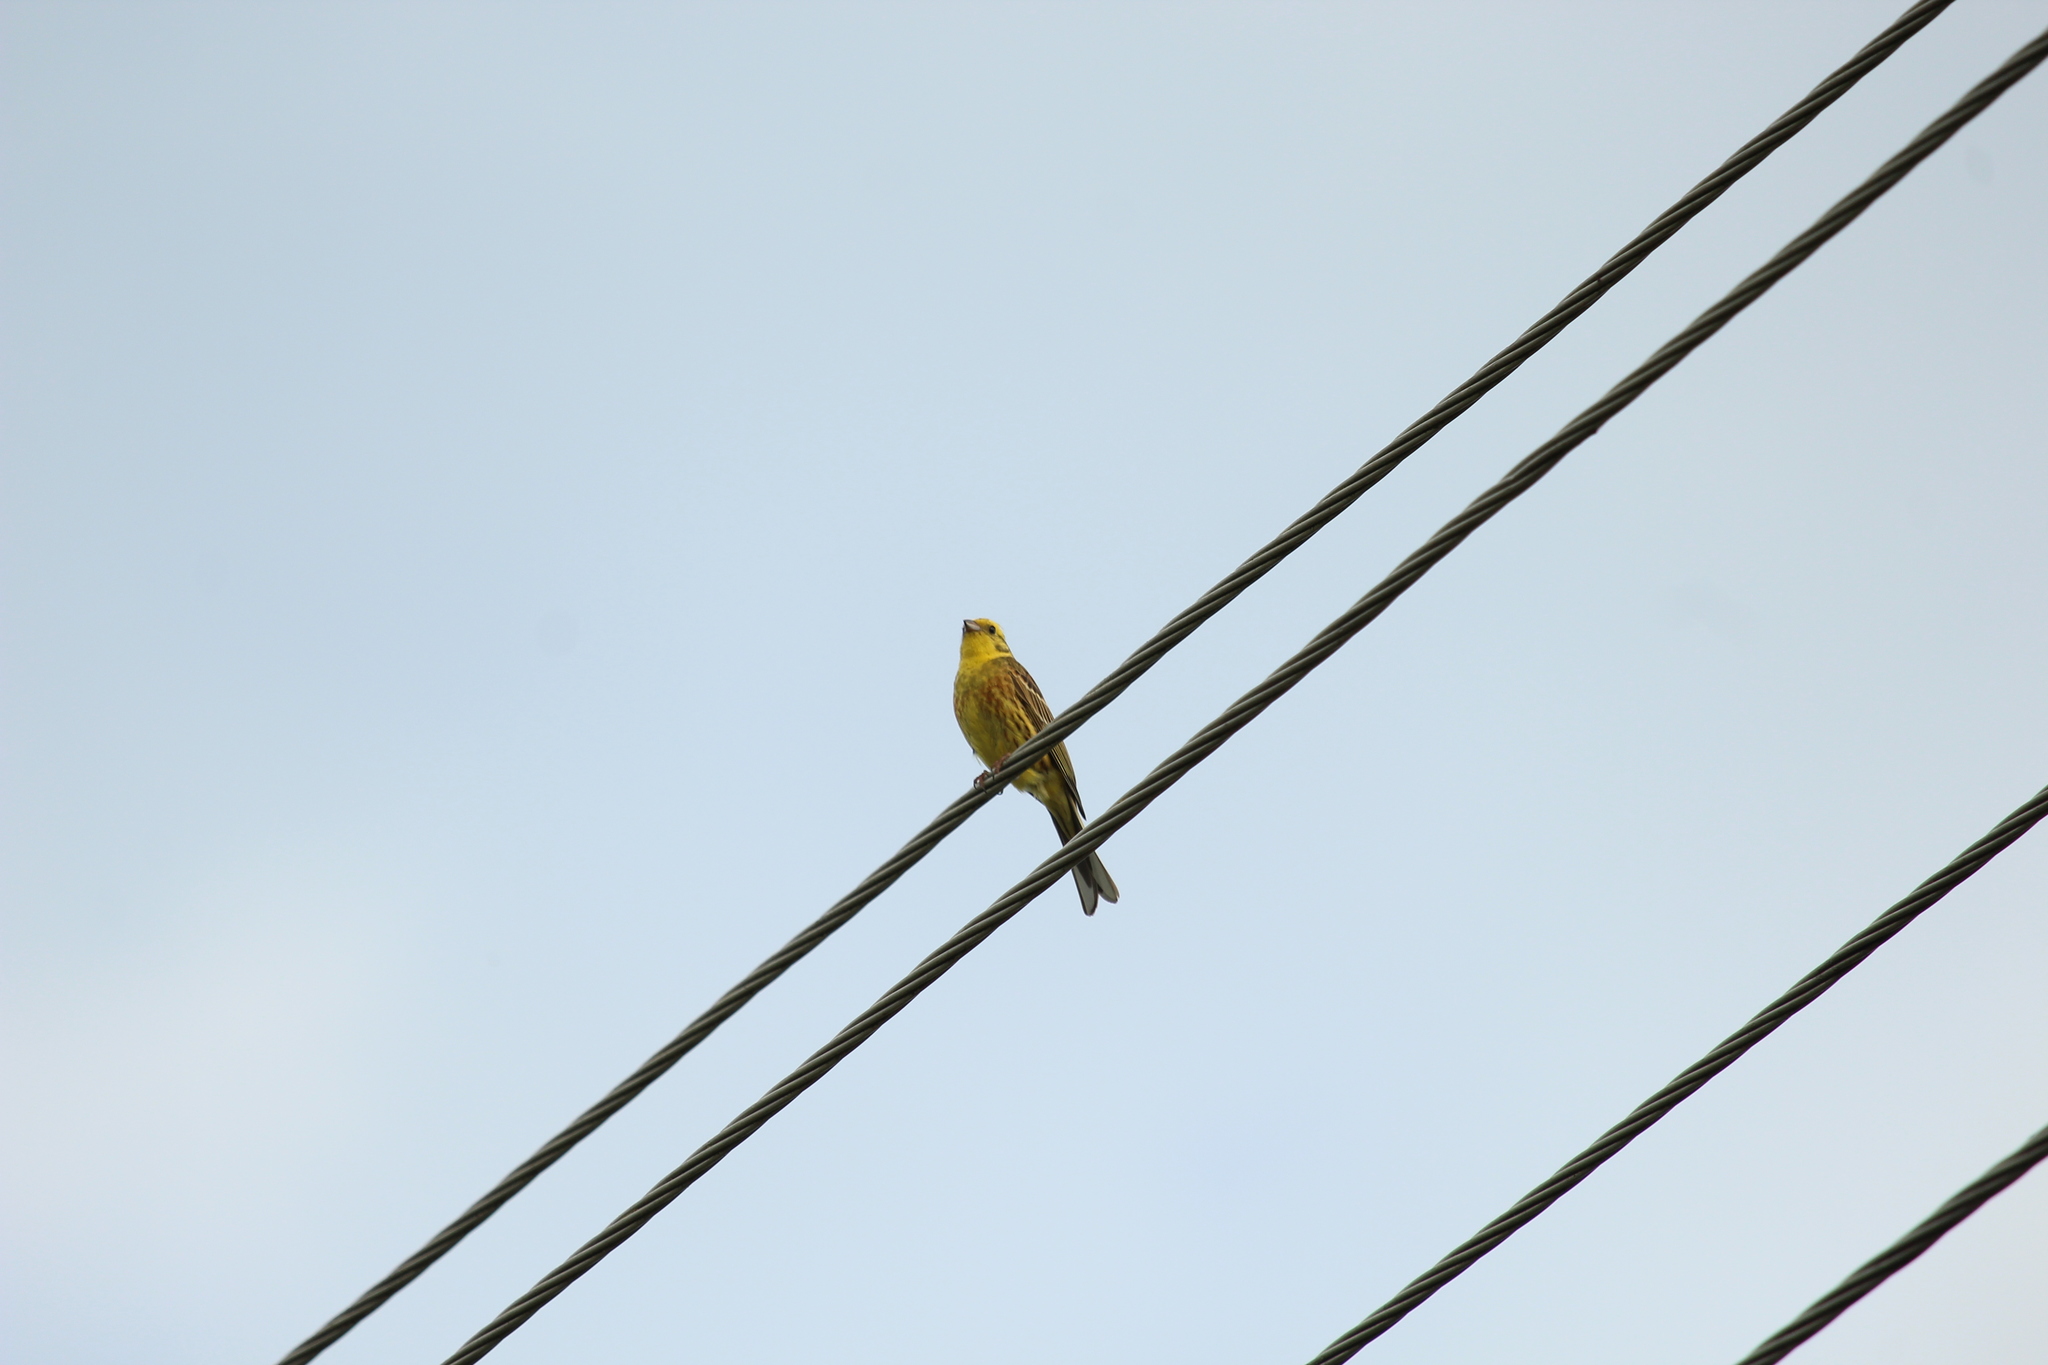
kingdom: Animalia
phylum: Chordata
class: Aves
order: Passeriformes
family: Emberizidae
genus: Emberiza
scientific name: Emberiza citrinella
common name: Yellowhammer
